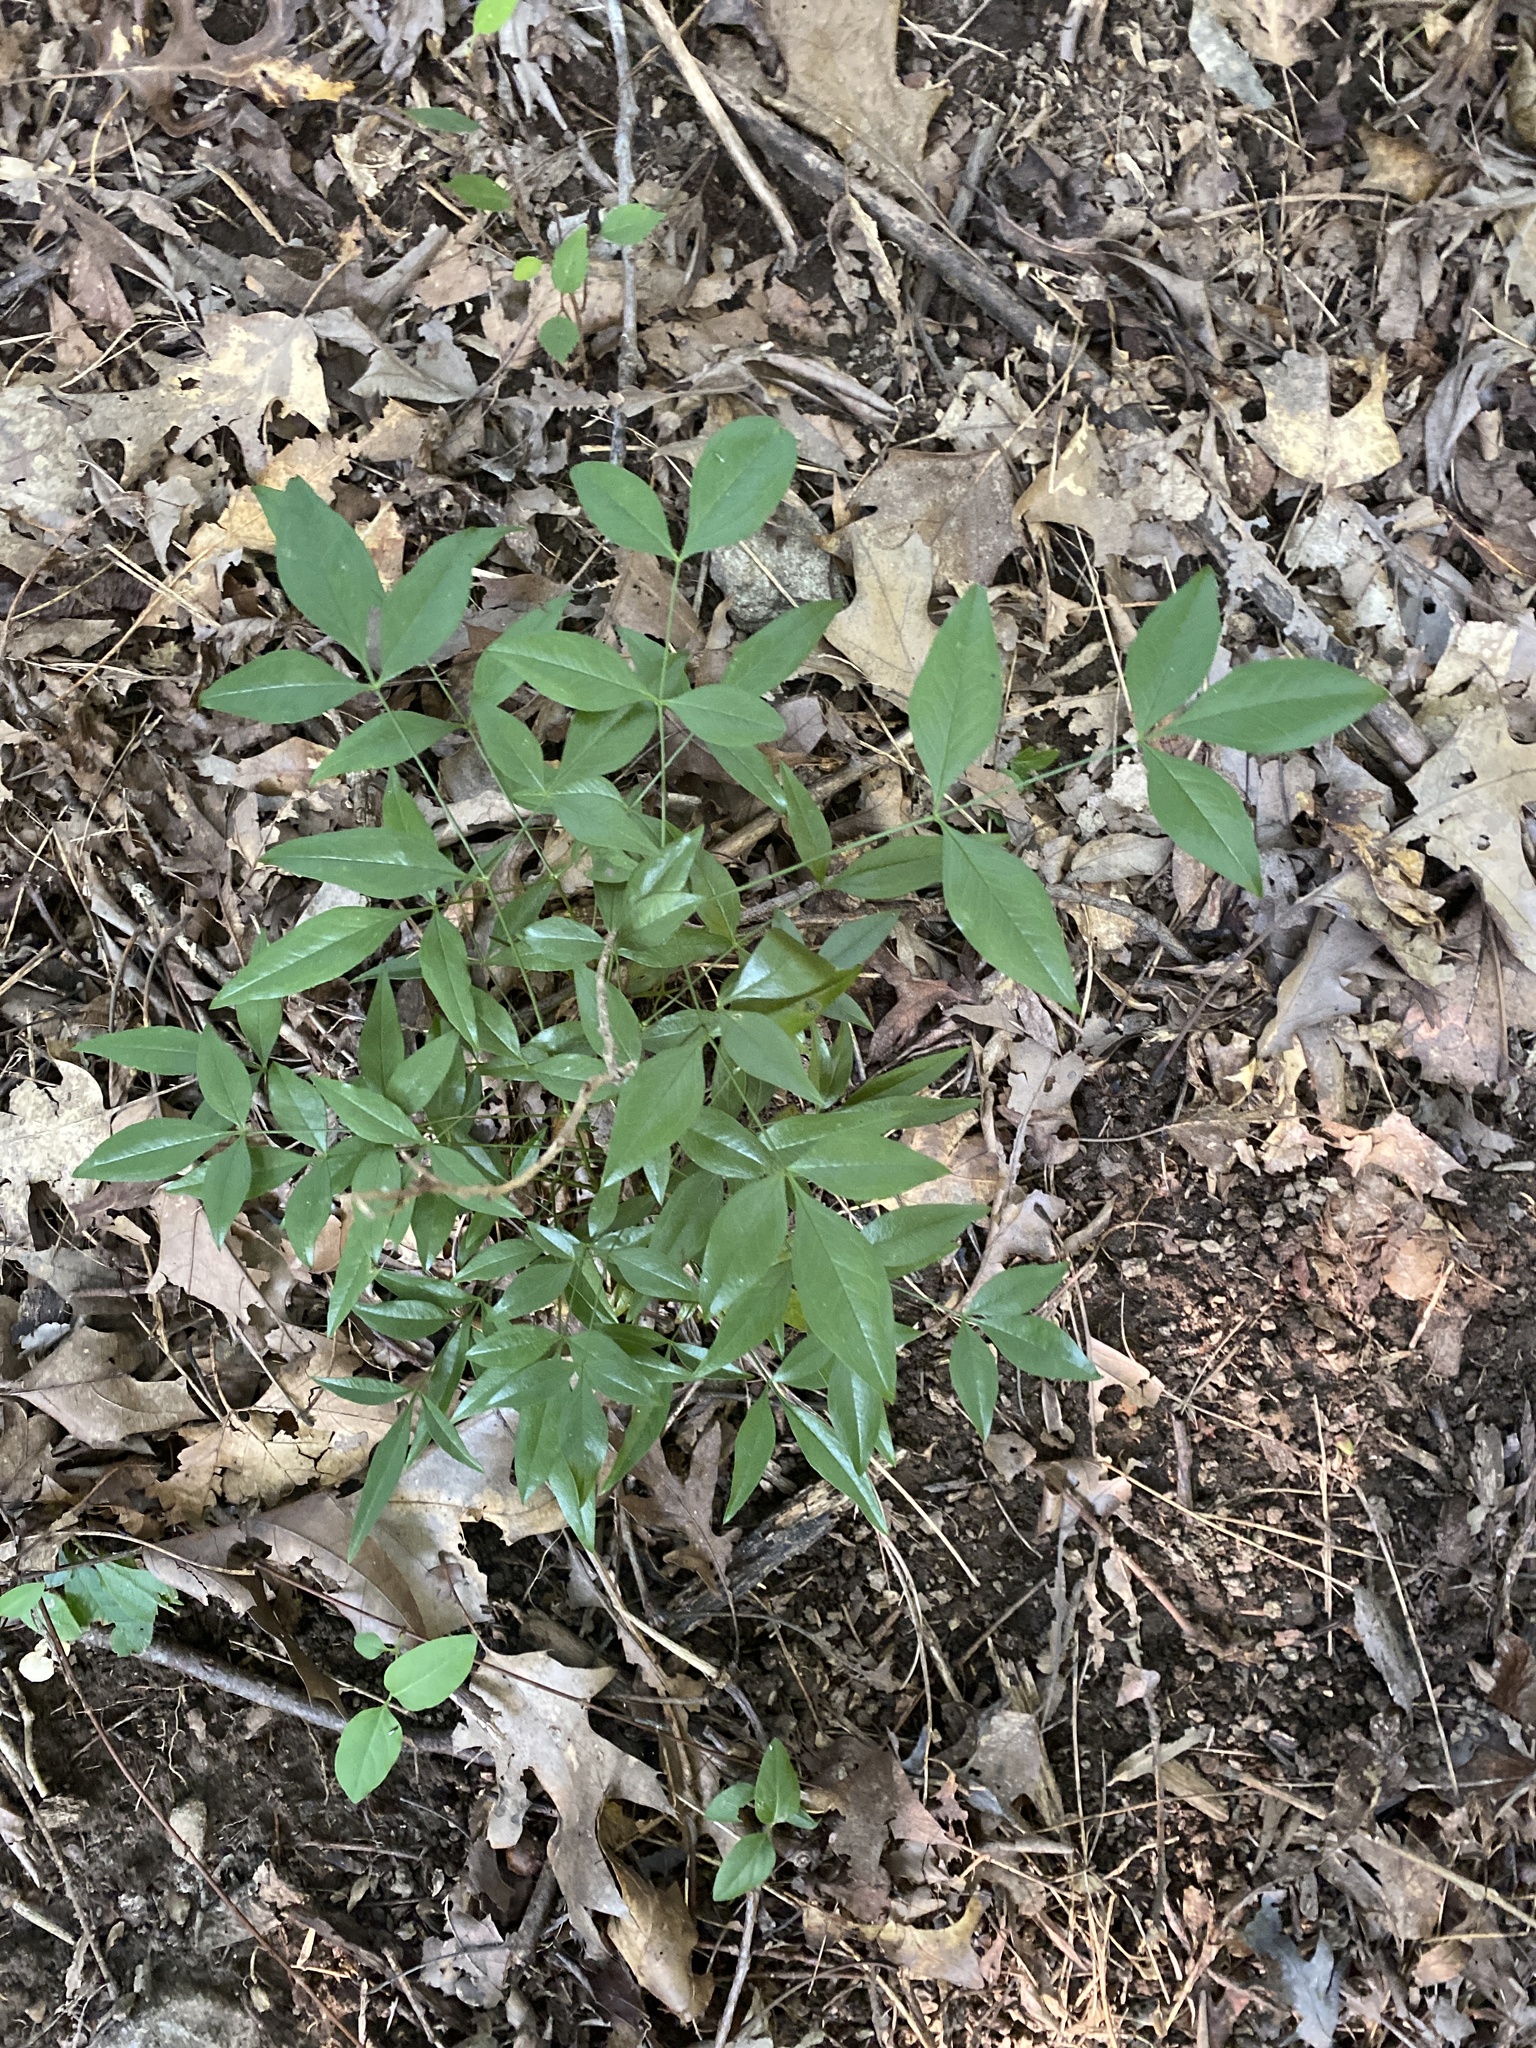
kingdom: Plantae
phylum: Tracheophyta
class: Magnoliopsida
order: Ranunculales
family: Berberidaceae
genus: Nandina
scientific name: Nandina domestica
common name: Sacred bamboo
